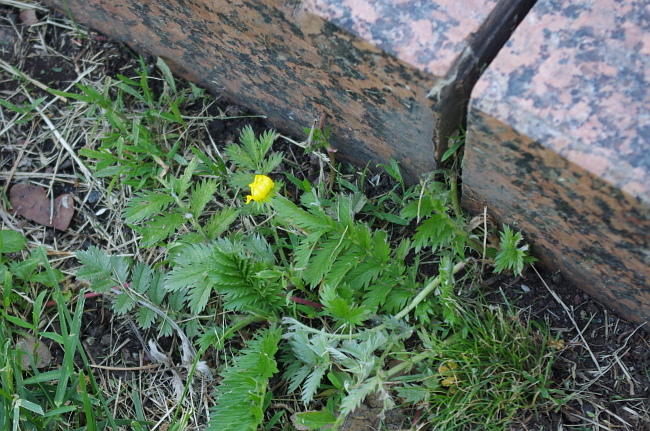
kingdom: Plantae
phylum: Tracheophyta
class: Magnoliopsida
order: Rosales
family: Rosaceae
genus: Argentina
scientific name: Argentina anserina
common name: Common silverweed
